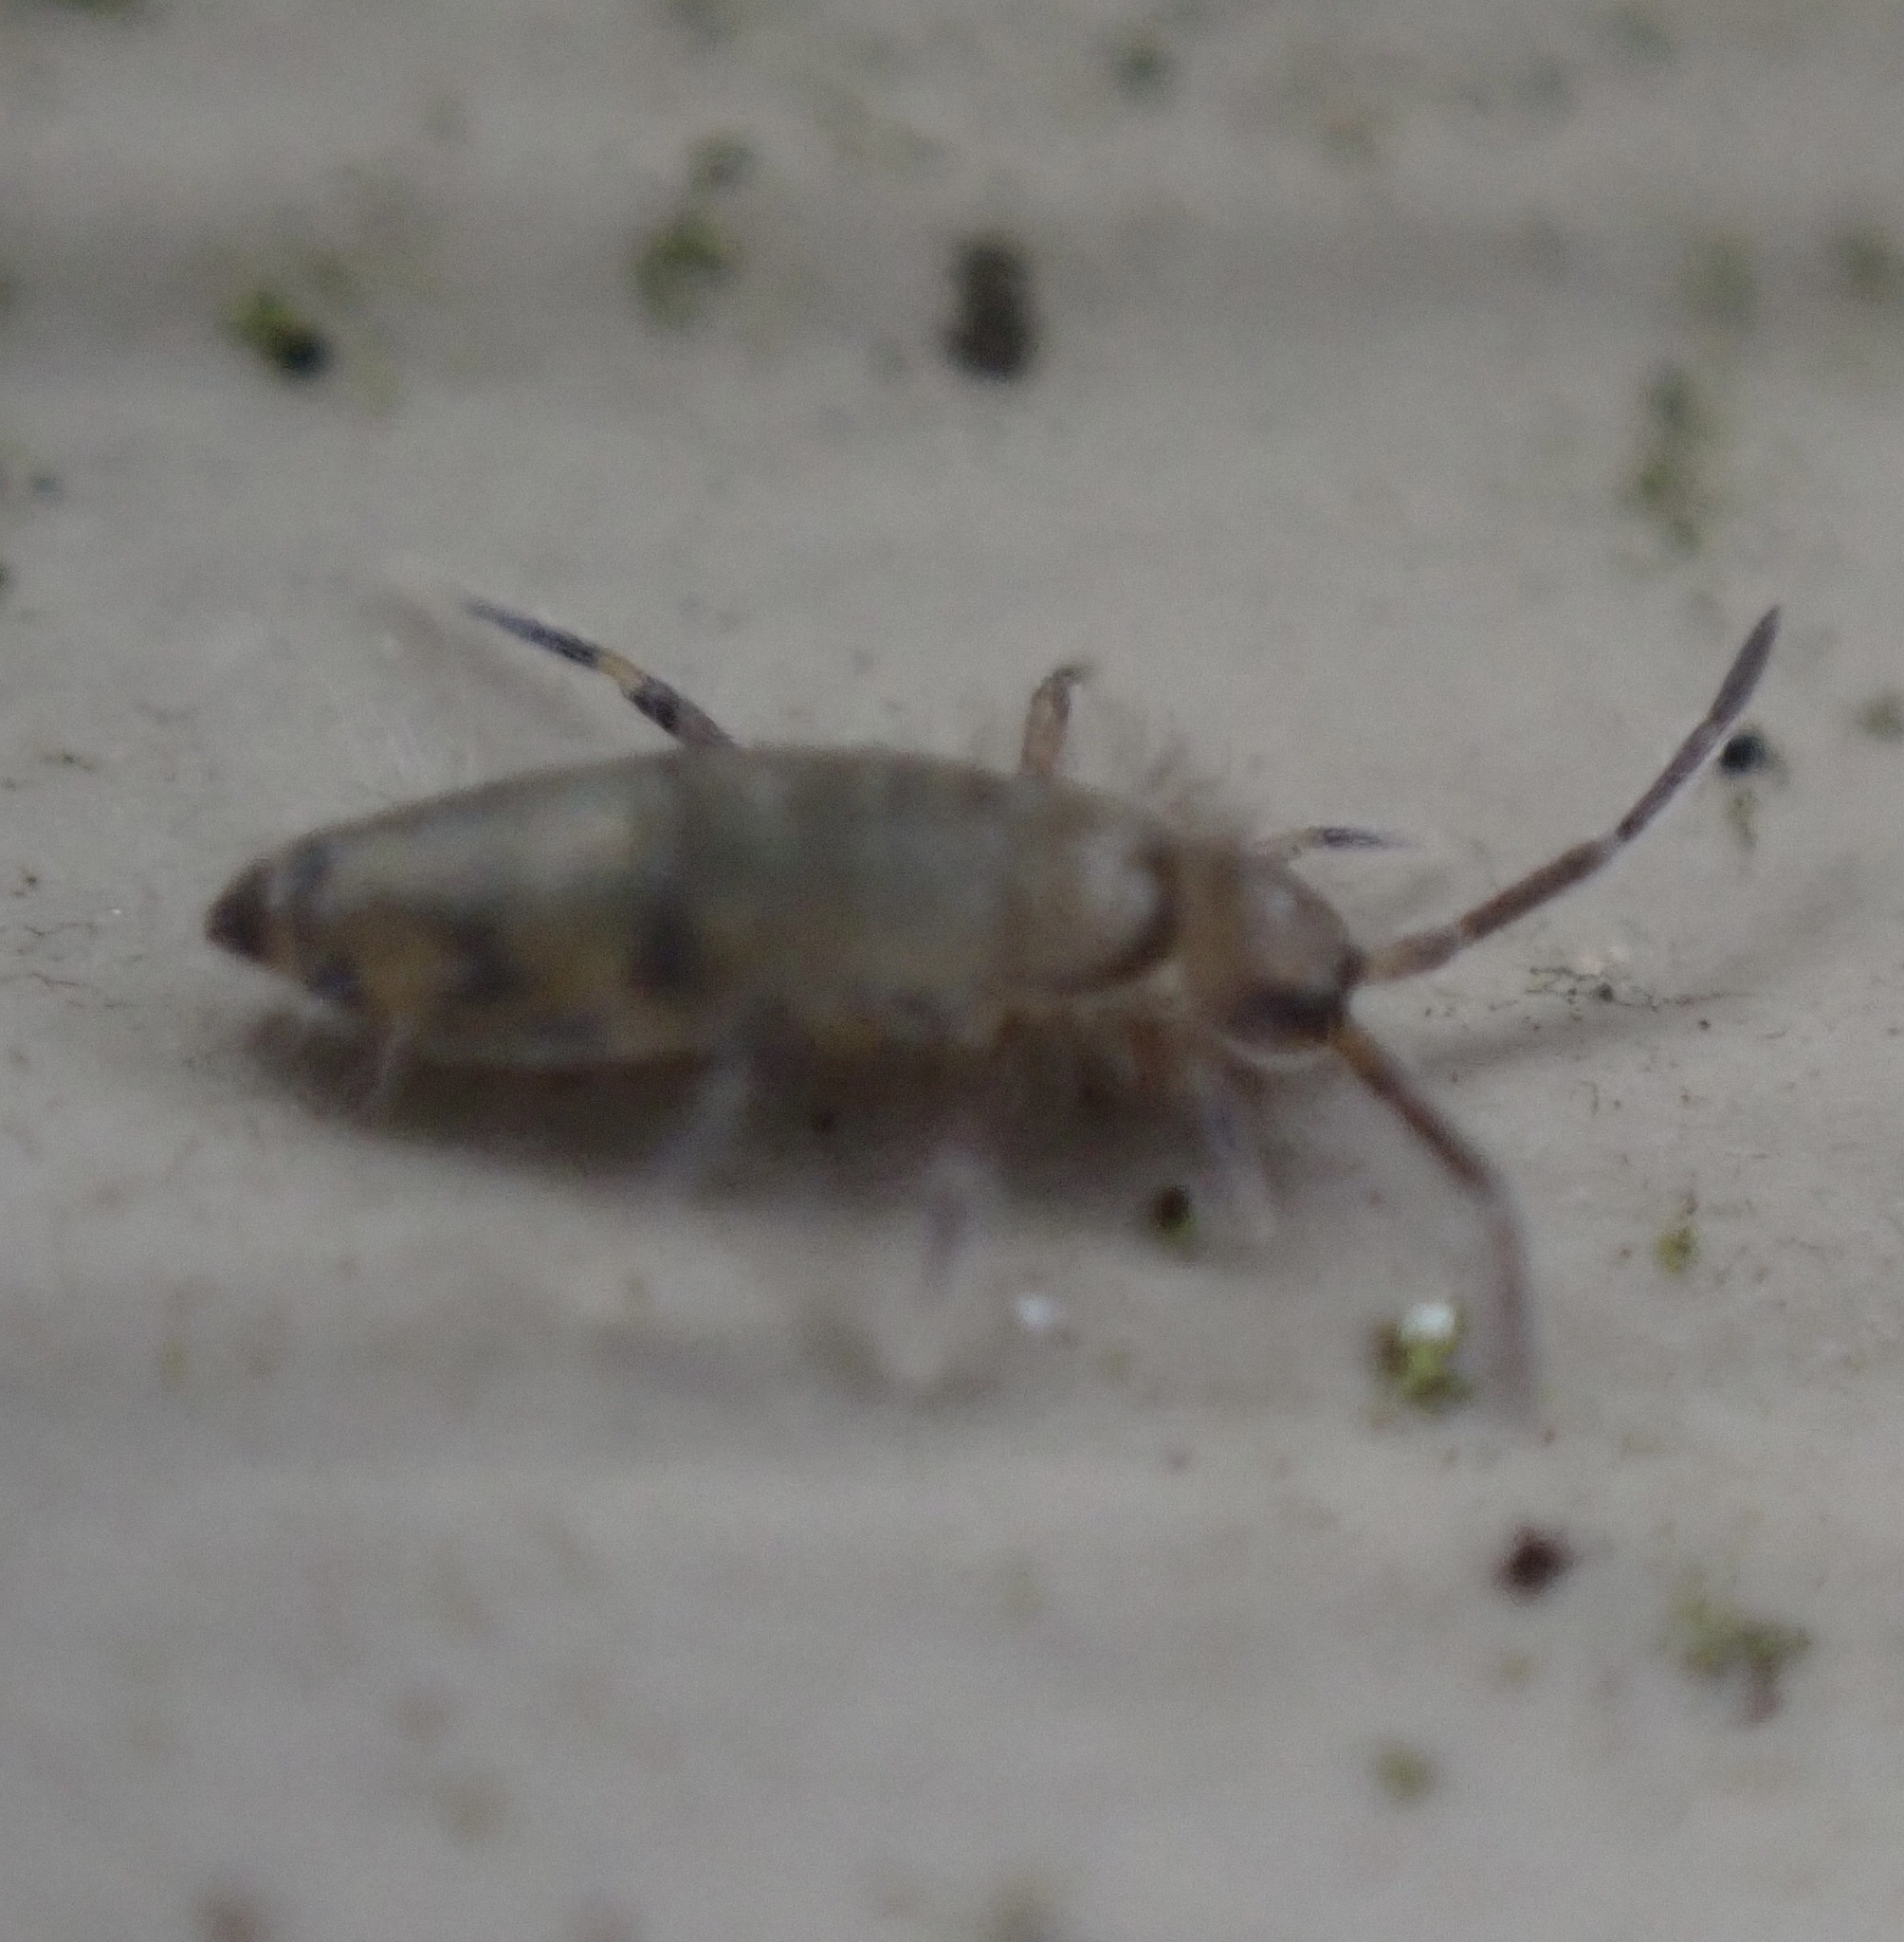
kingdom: Animalia
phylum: Arthropoda
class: Collembola
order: Entomobryomorpha
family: Entomobryidae
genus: Willowsia
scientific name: Willowsia nigromaculata
